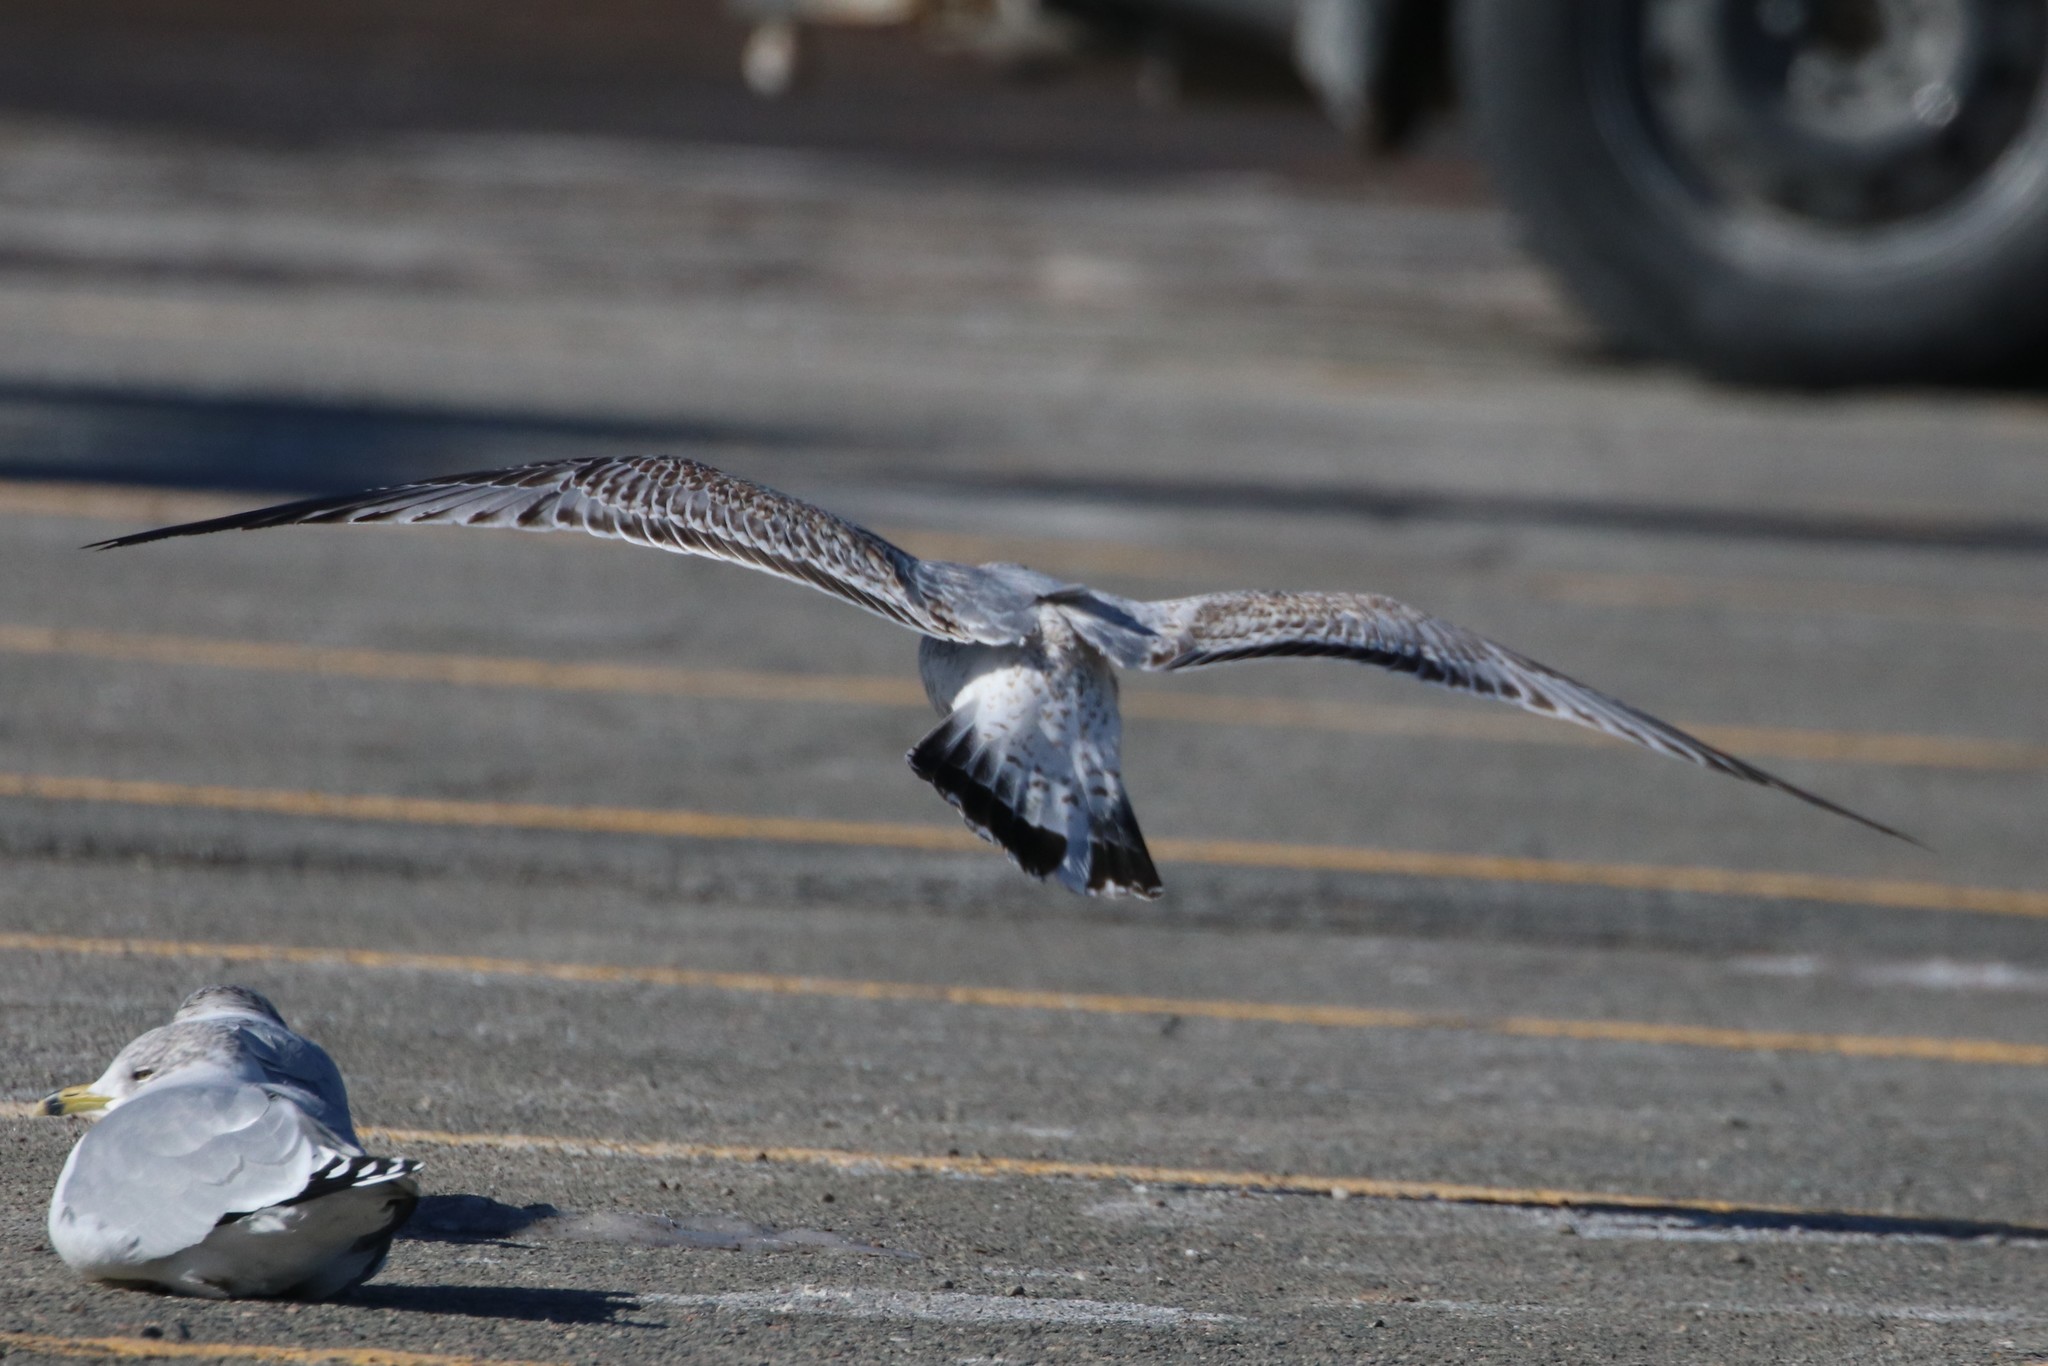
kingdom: Animalia
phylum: Chordata
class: Aves
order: Charadriiformes
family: Laridae
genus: Larus
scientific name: Larus argentatus
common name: Herring gull
